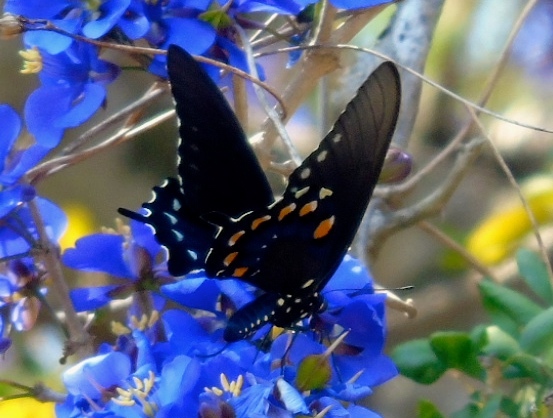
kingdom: Animalia
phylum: Arthropoda
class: Insecta
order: Lepidoptera
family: Papilionidae
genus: Battus
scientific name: Battus philenor
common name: Pipevine swallowtail
